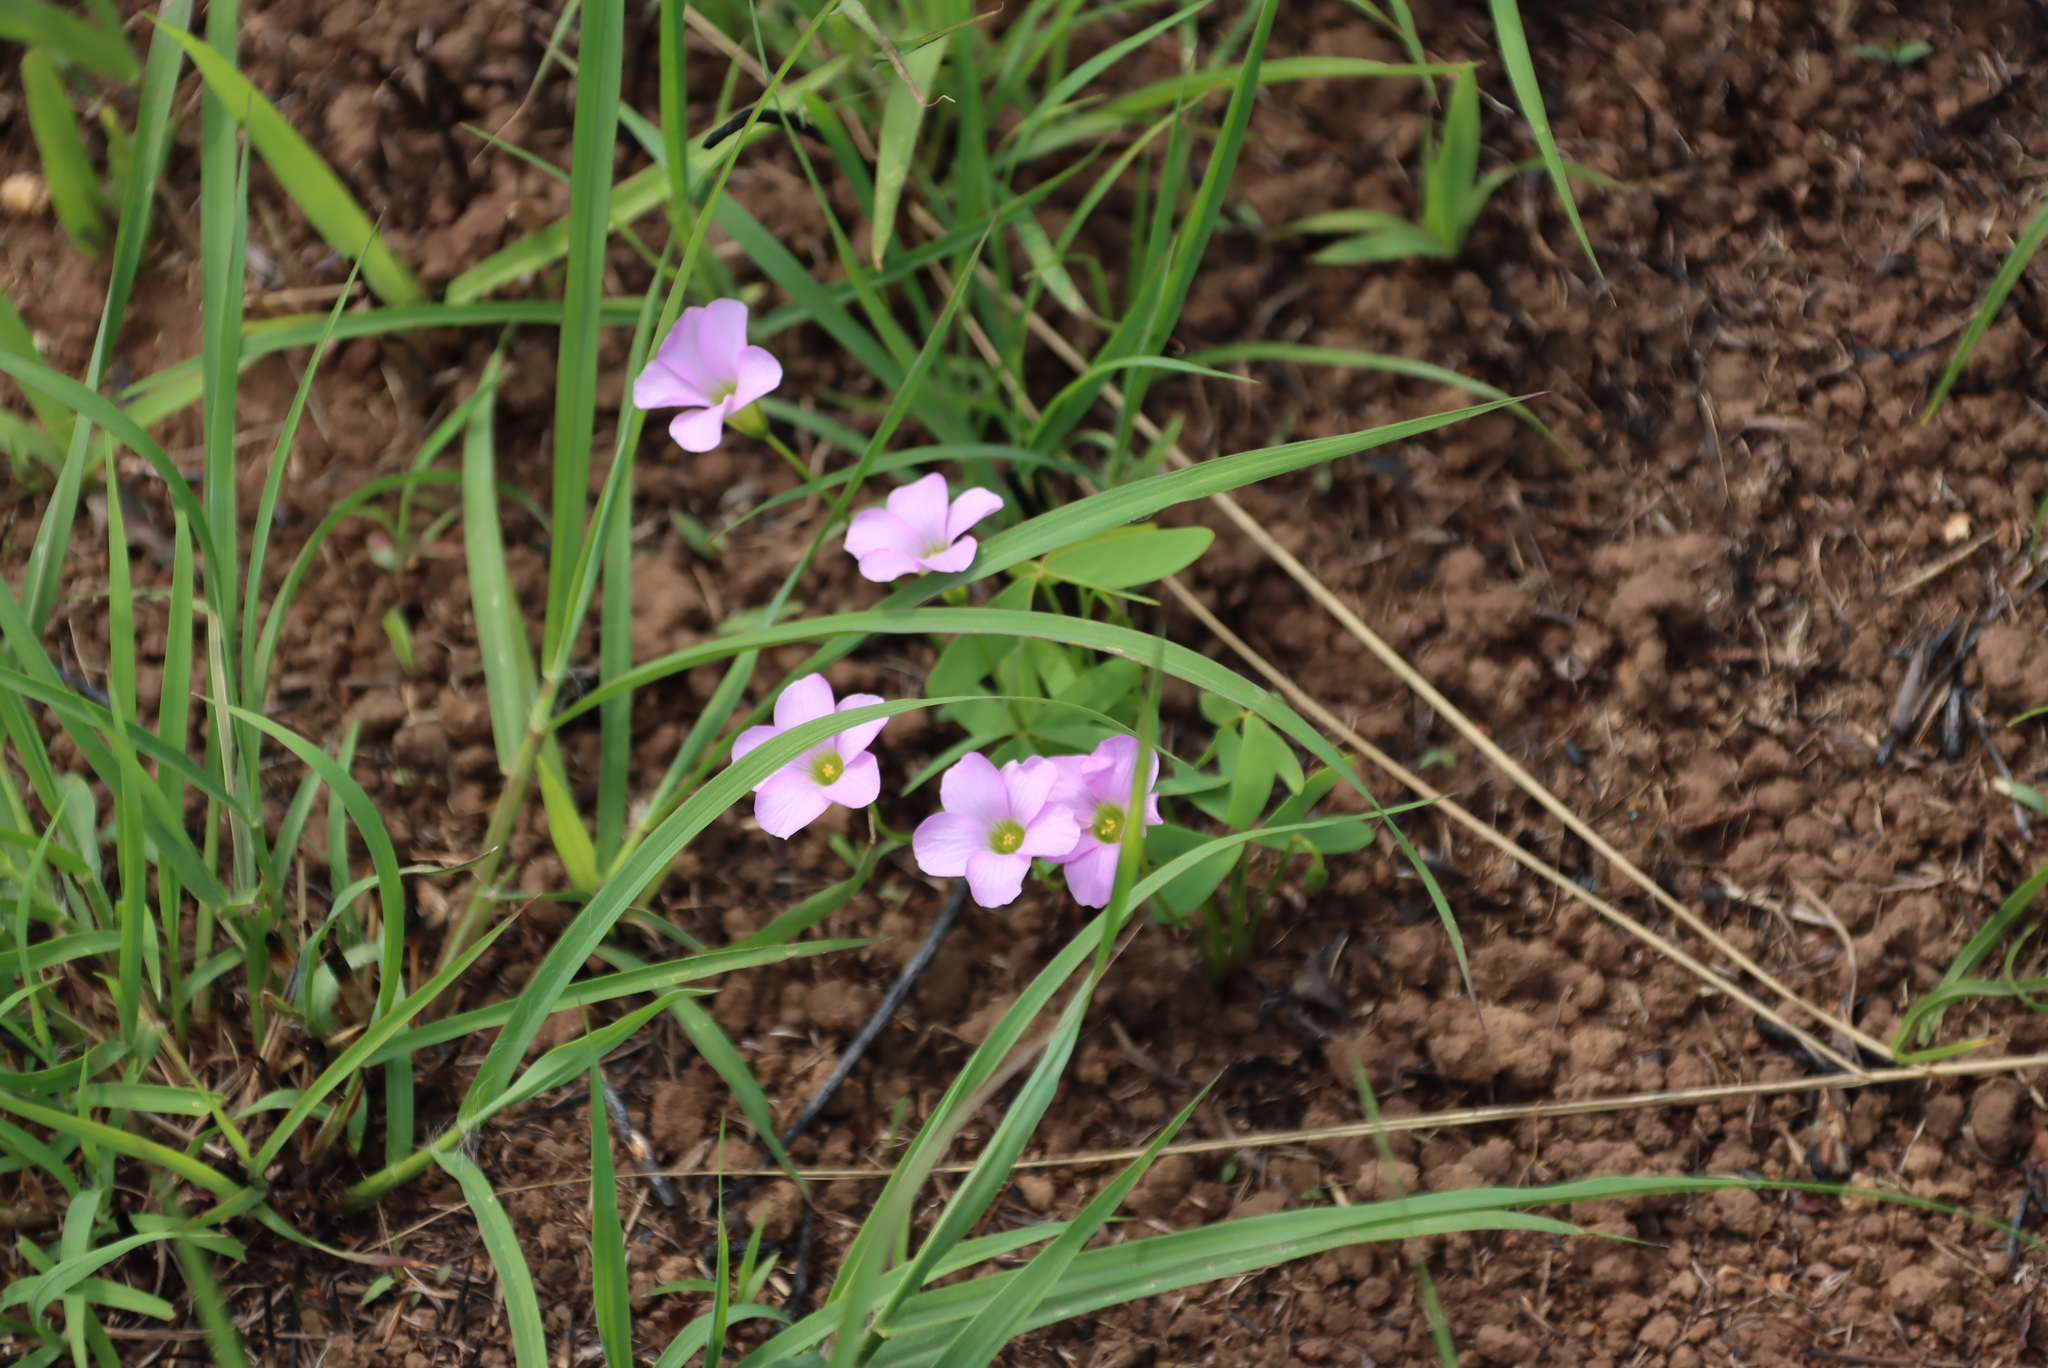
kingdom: Plantae
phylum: Tracheophyta
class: Magnoliopsida
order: Oxalidales
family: Oxalidaceae
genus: Oxalis
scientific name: Oxalis smithiana
